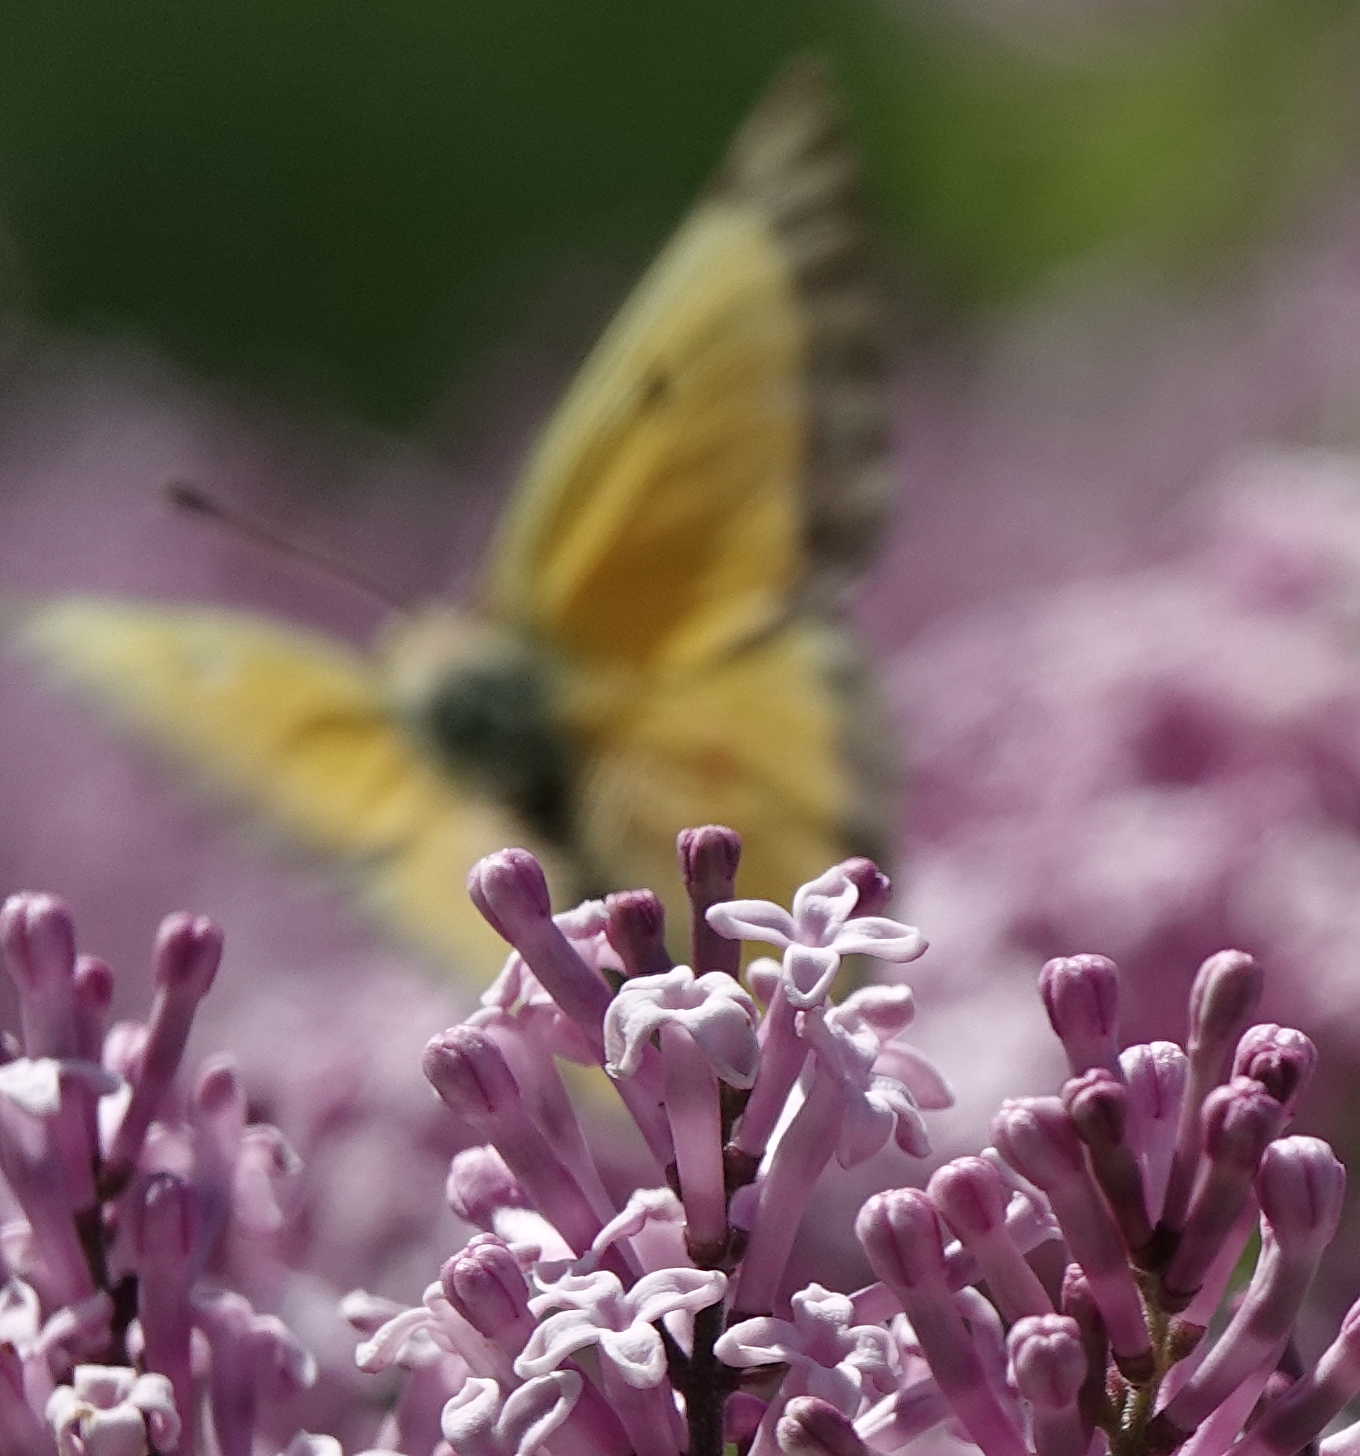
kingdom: Animalia
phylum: Arthropoda
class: Insecta
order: Lepidoptera
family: Pieridae
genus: Colias
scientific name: Colias eurytheme
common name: Alfalfa butterfly
